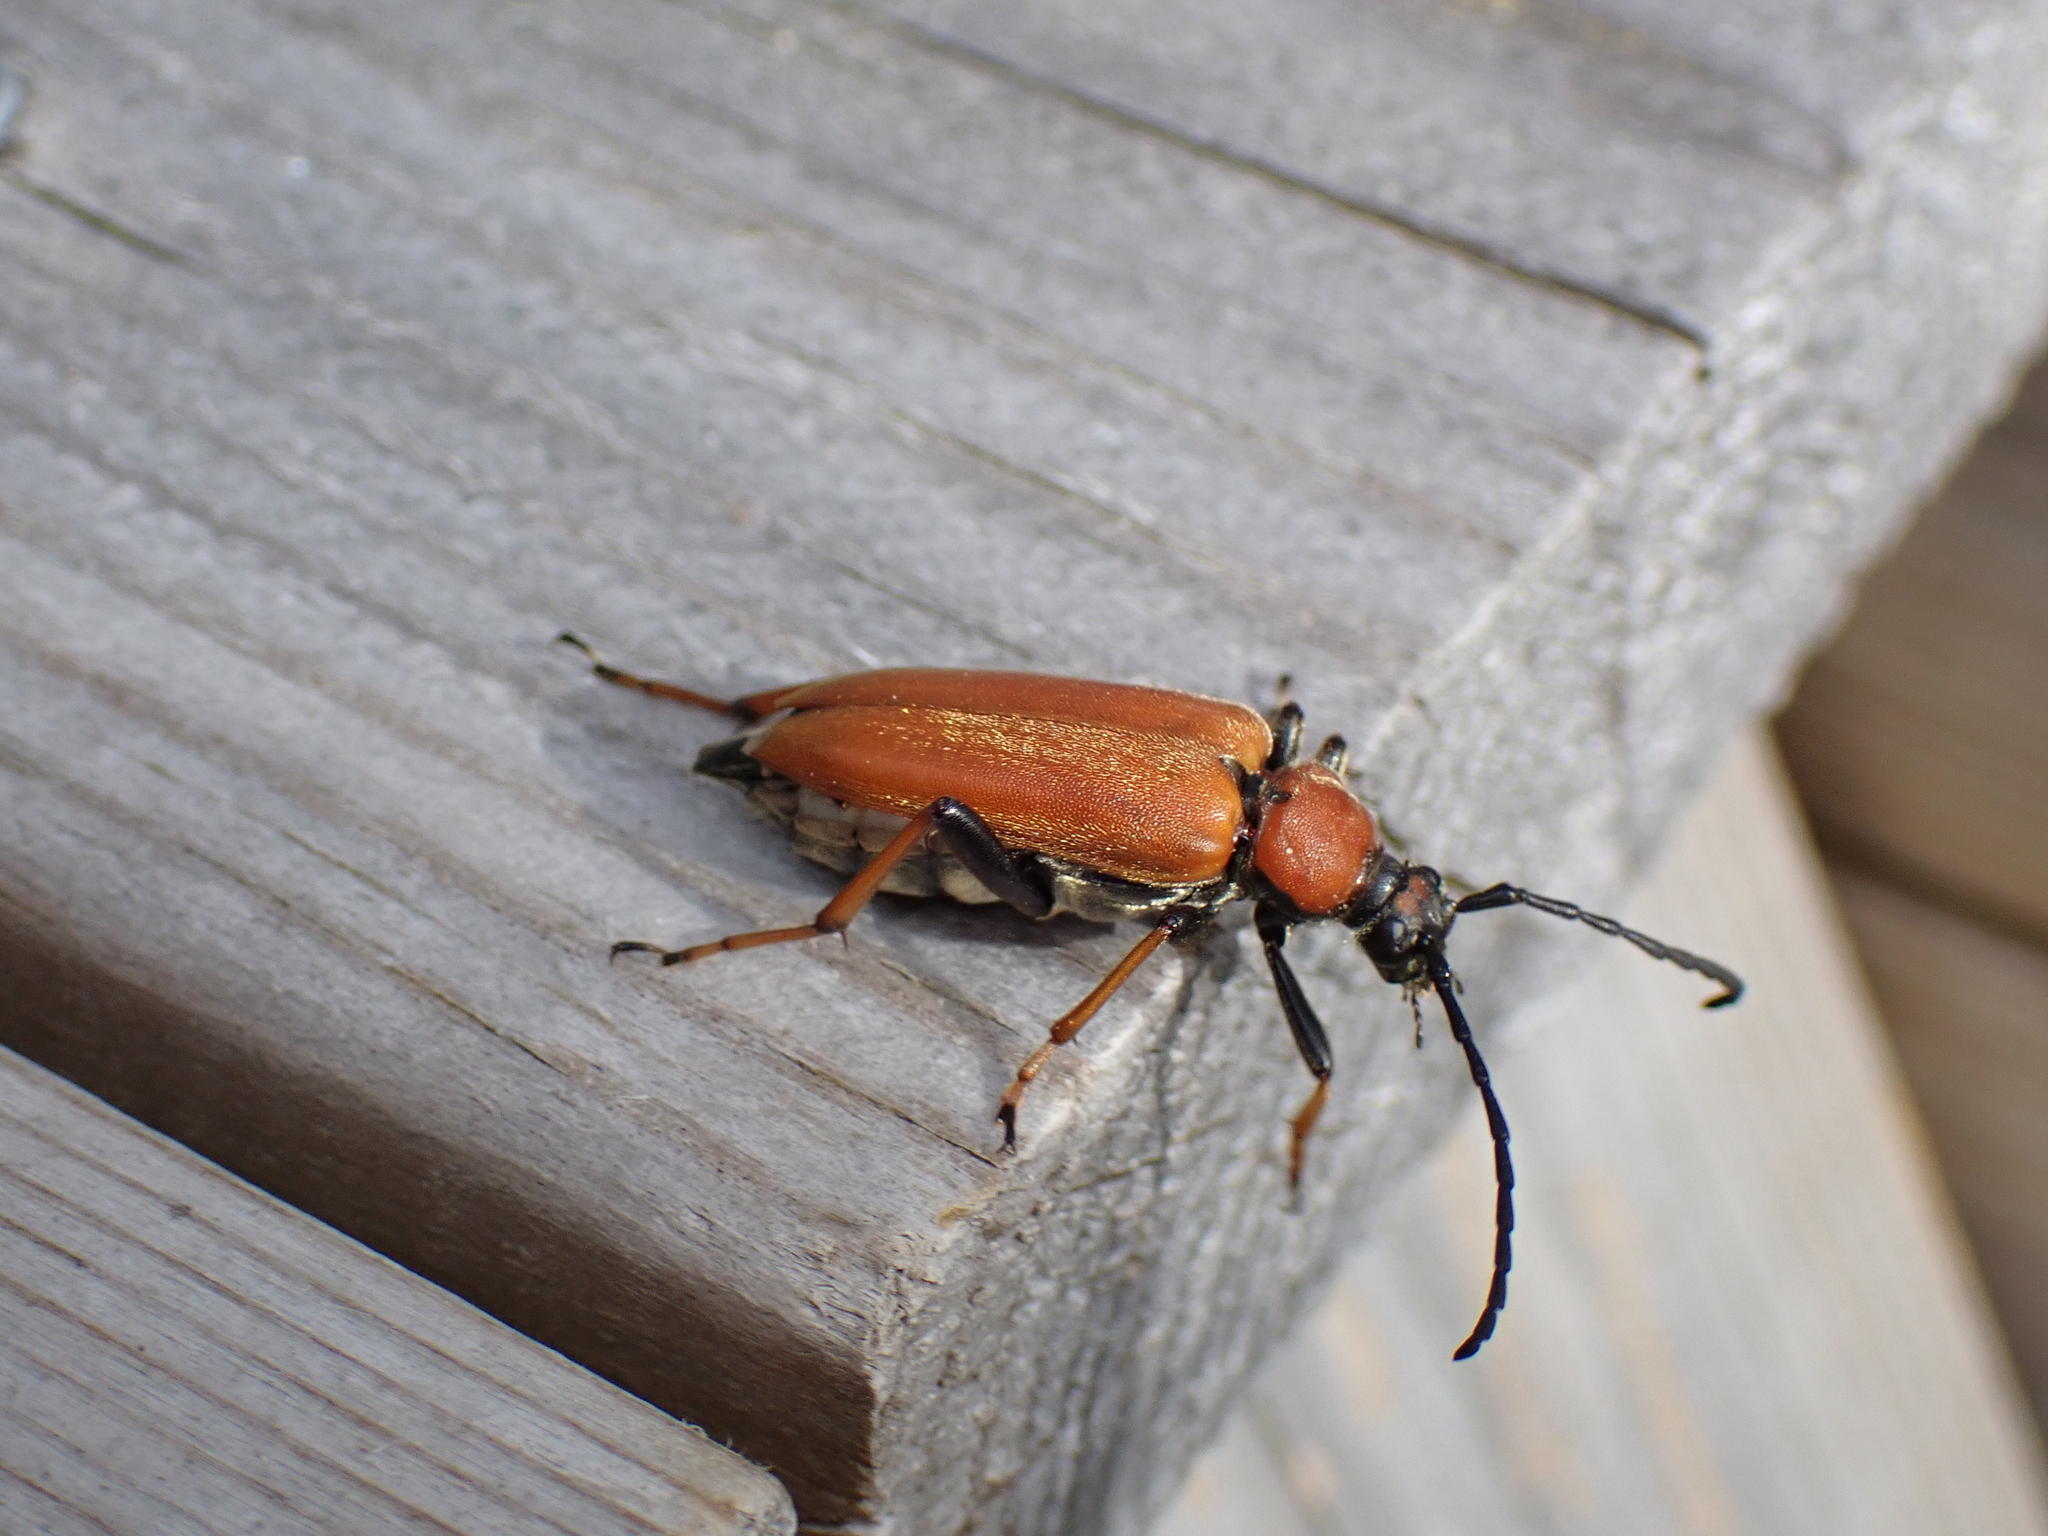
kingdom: Animalia
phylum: Arthropoda
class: Insecta
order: Coleoptera
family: Cerambycidae
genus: Stictoleptura
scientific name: Stictoleptura rubra
